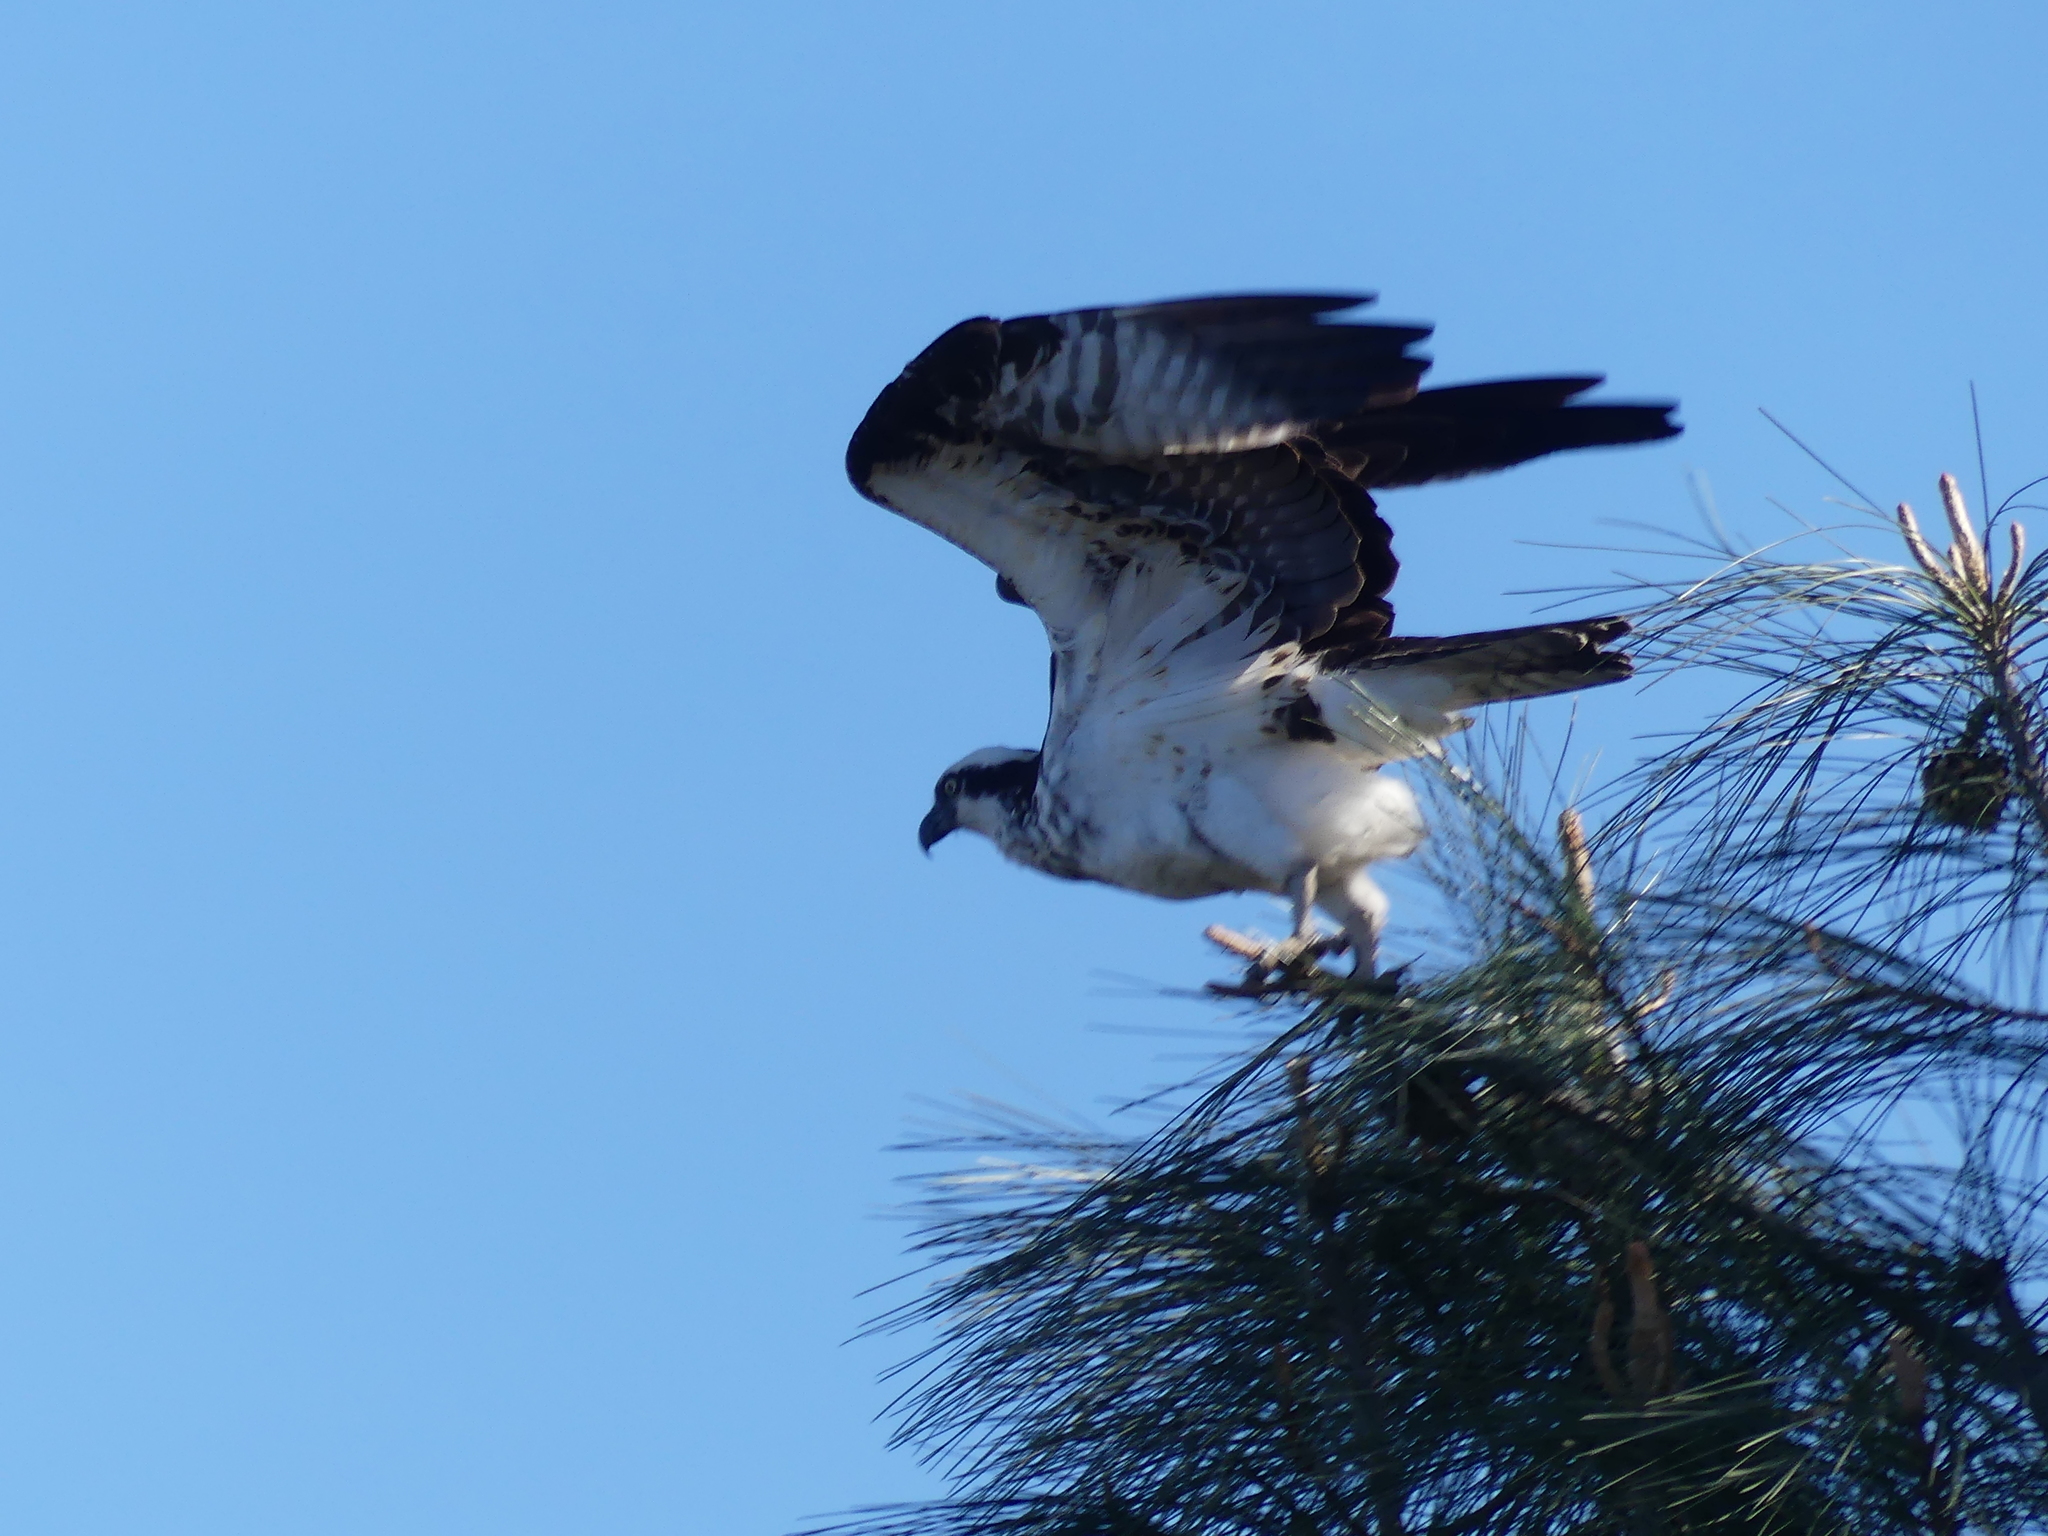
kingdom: Animalia
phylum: Chordata
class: Aves
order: Accipitriformes
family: Pandionidae
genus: Pandion
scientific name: Pandion haliaetus
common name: Osprey
